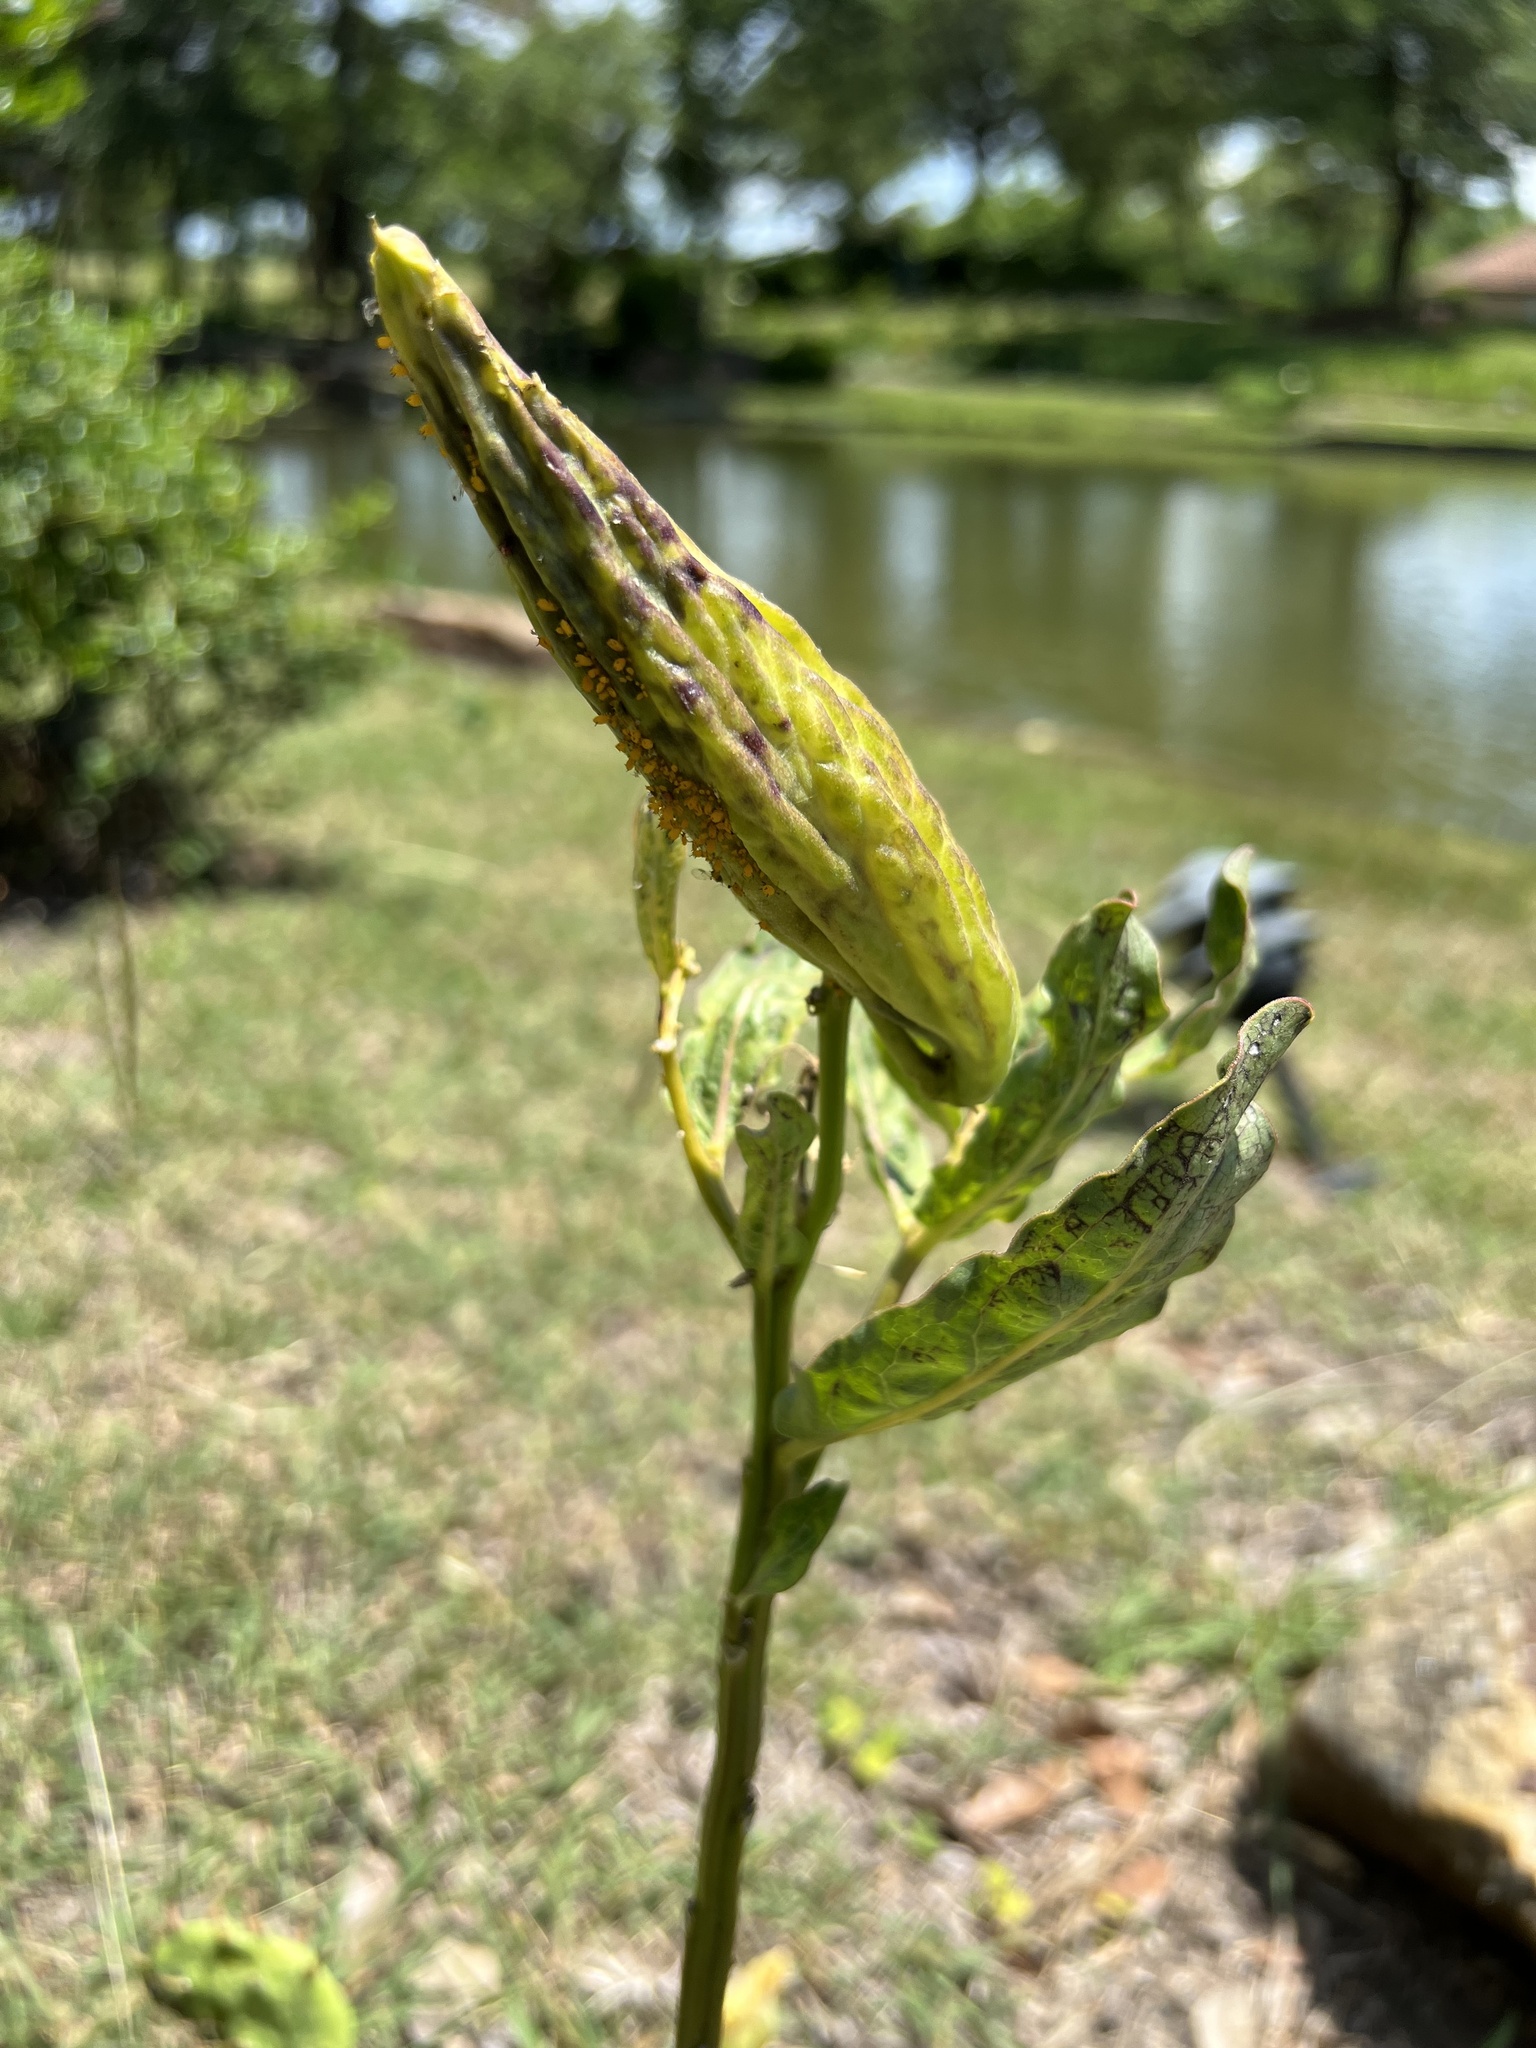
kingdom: Plantae
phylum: Tracheophyta
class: Magnoliopsida
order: Gentianales
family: Apocynaceae
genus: Asclepias
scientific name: Asclepias viridis
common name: Antelope-horns
